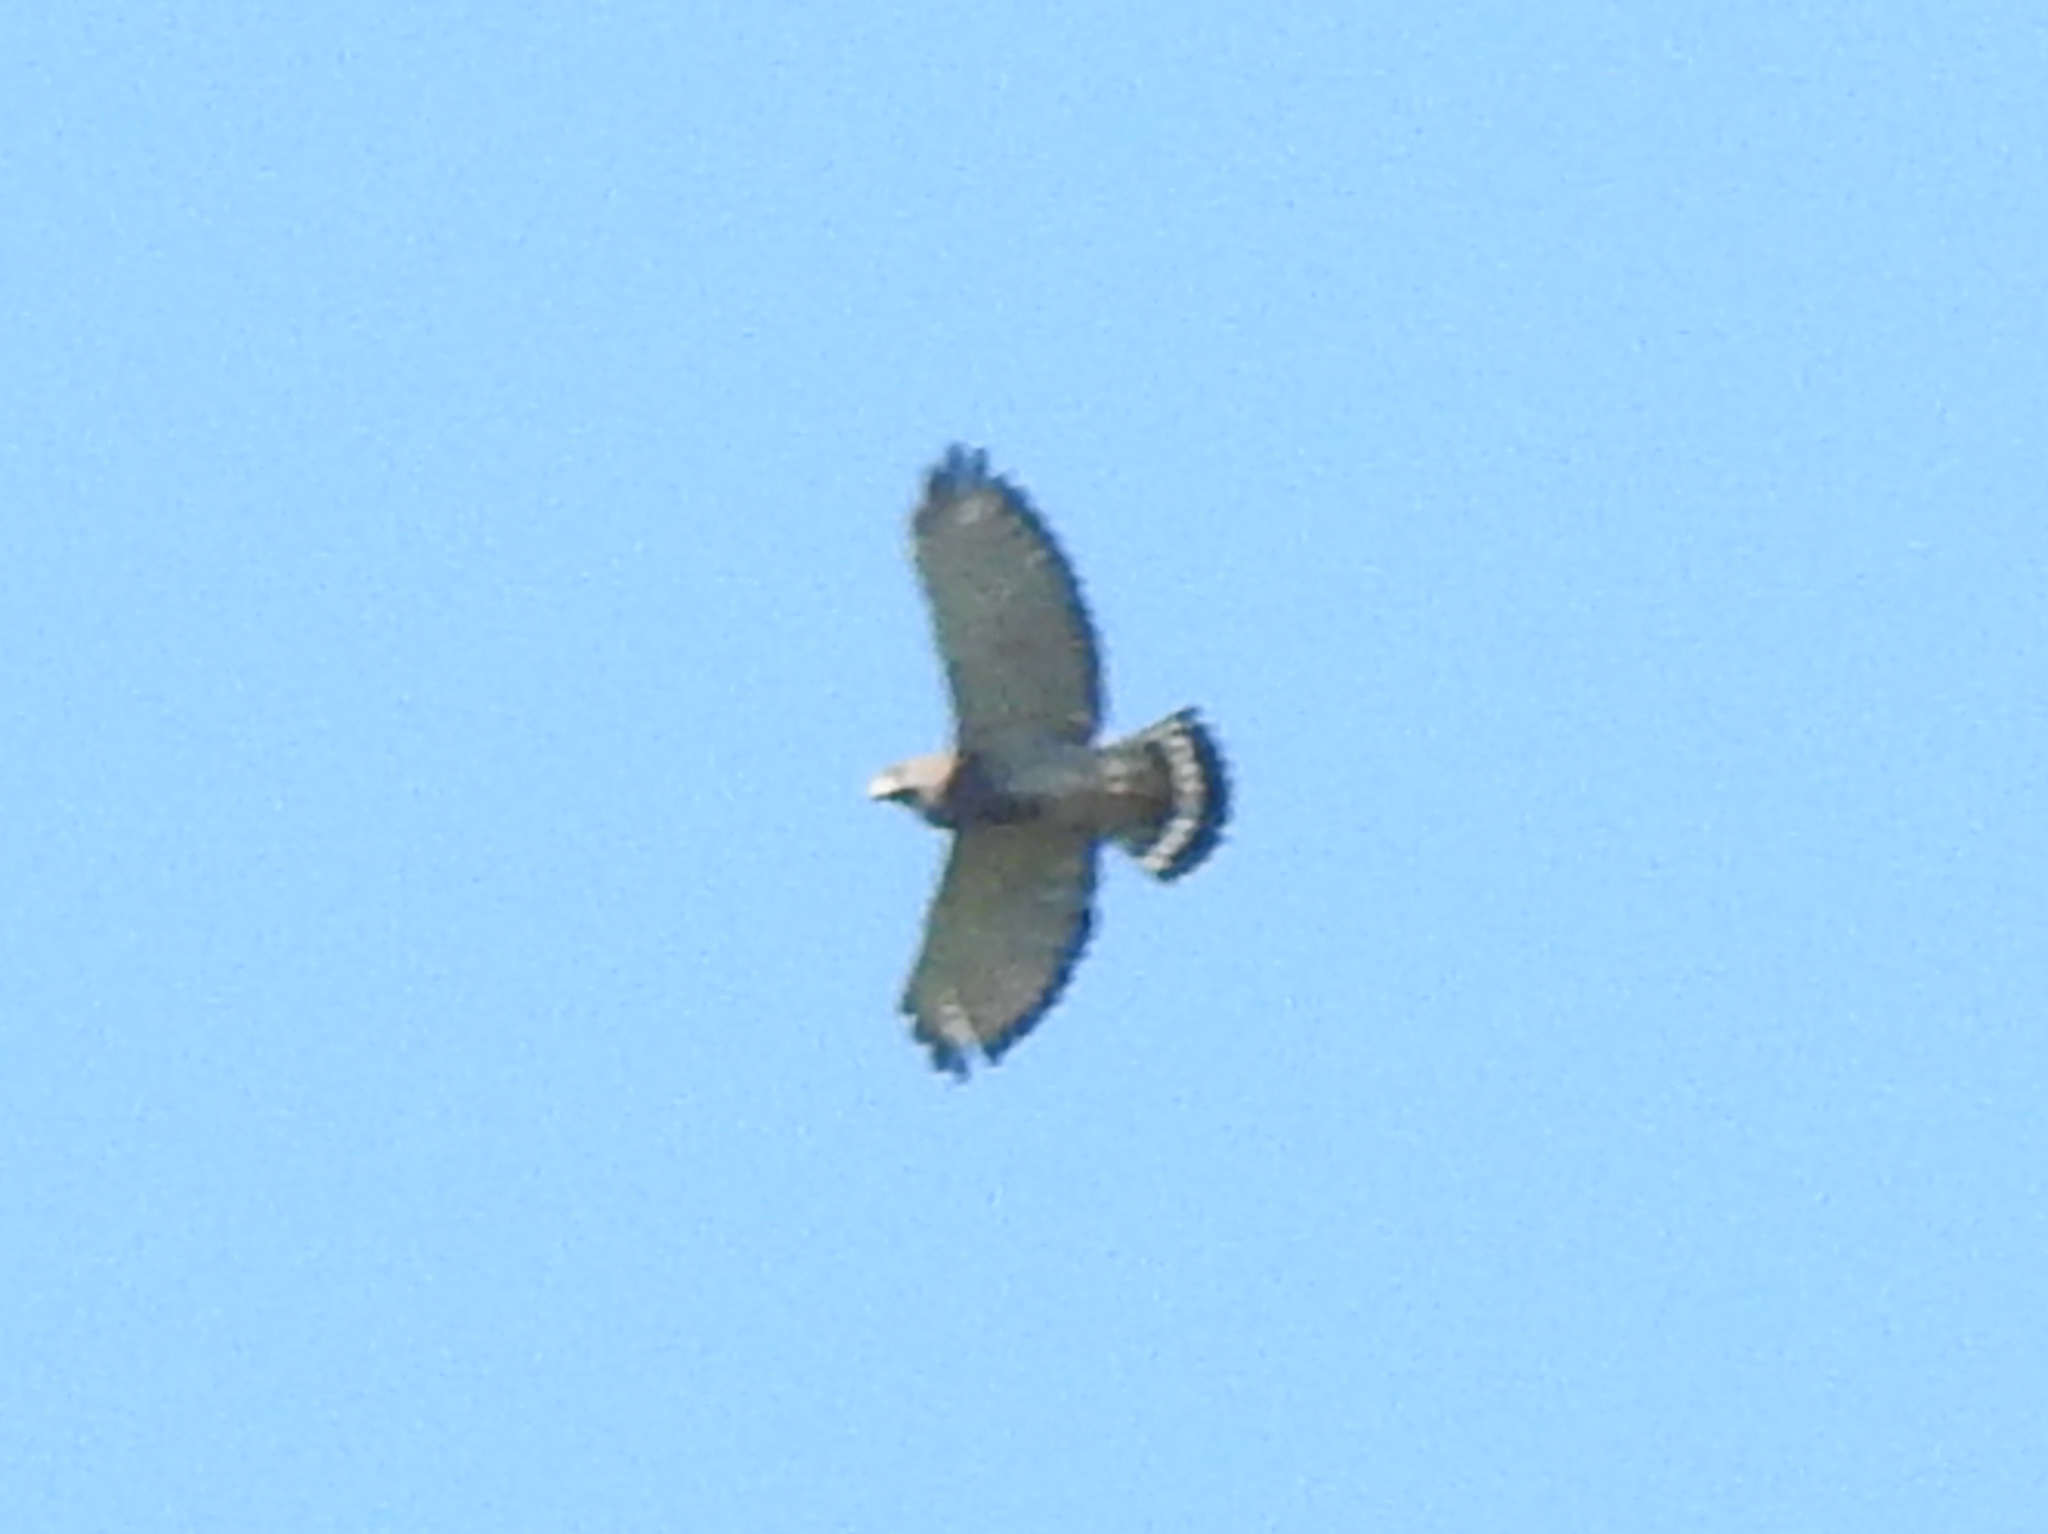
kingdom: Animalia
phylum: Chordata
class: Aves
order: Accipitriformes
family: Accipitridae
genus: Buteo
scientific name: Buteo platypterus
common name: Broad-winged hawk
